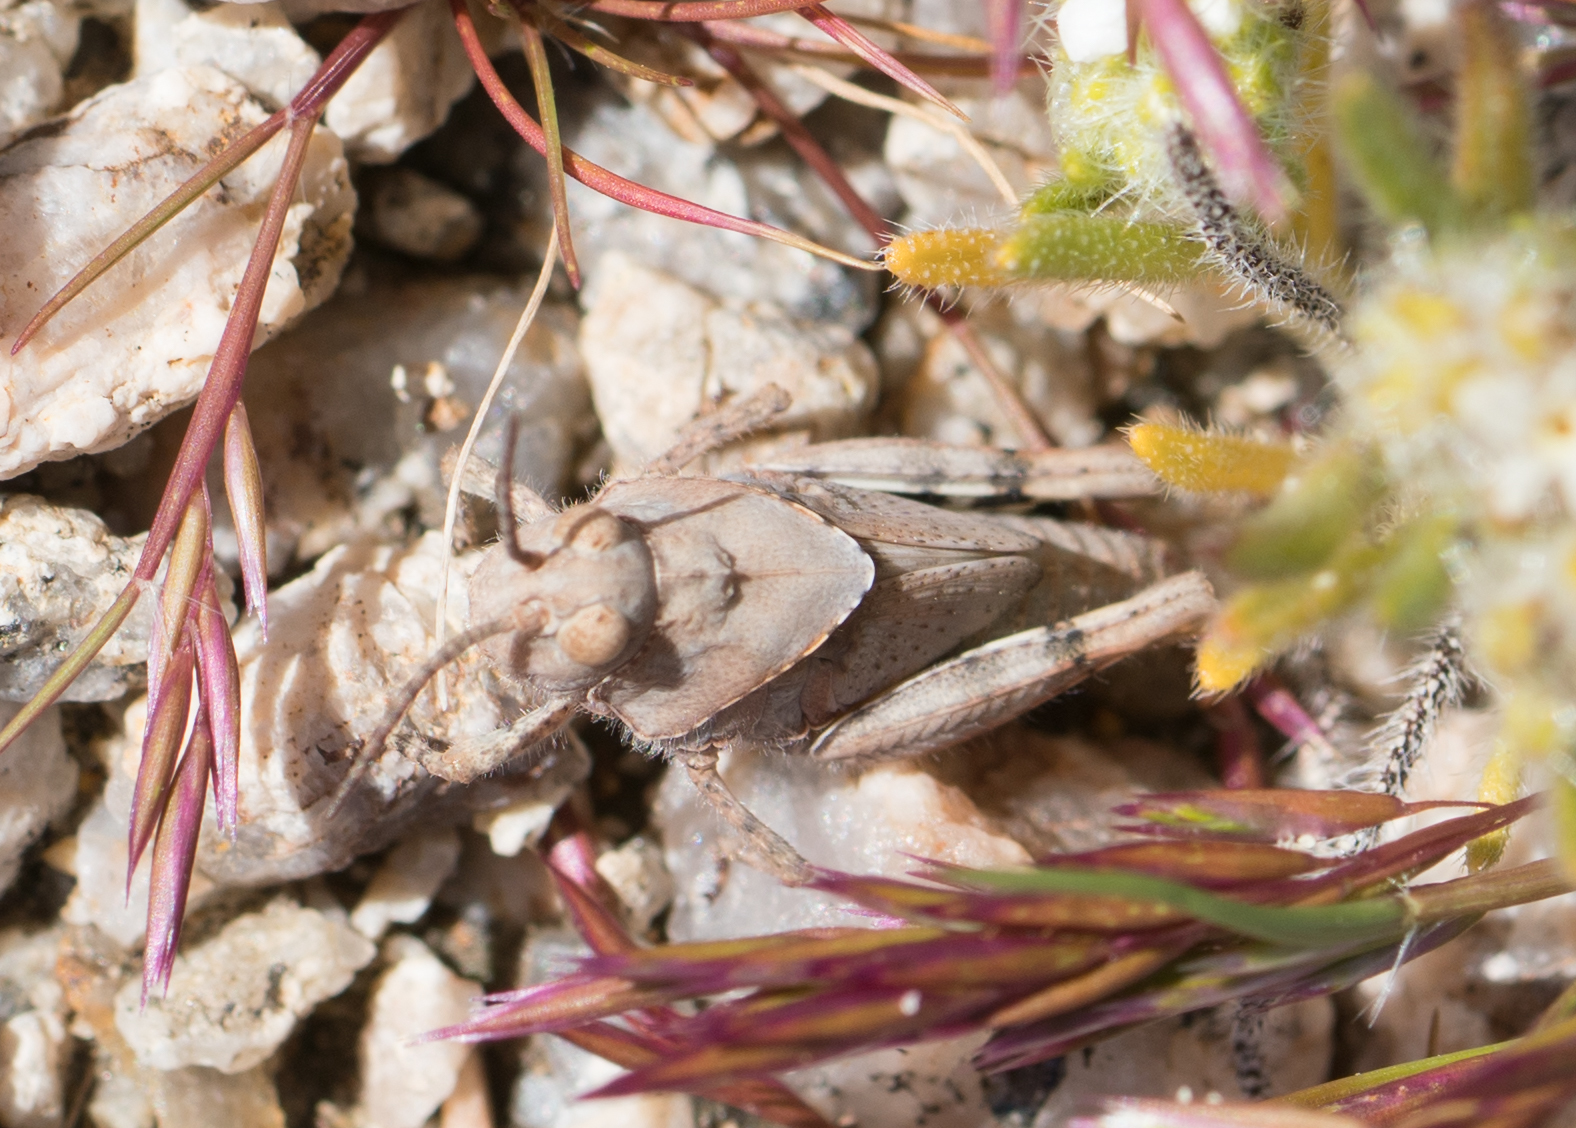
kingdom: Animalia
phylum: Arthropoda
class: Insecta
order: Orthoptera
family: Acrididae
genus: Trimerotropis
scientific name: Trimerotropis pallidipennis
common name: Pallid-winged grasshopper
